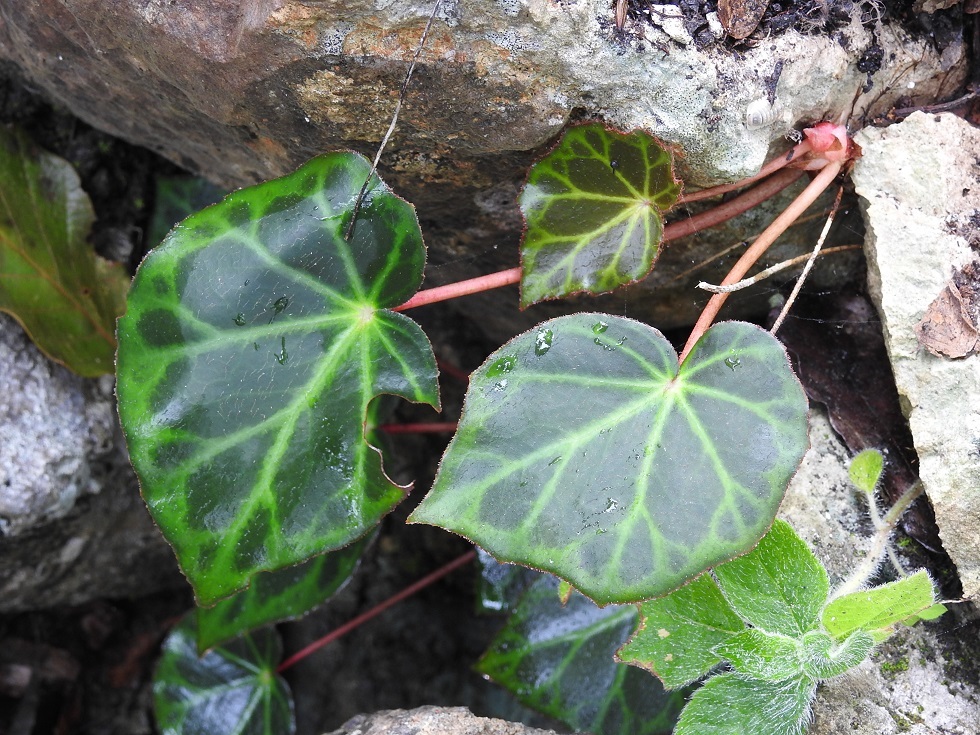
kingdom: Plantae
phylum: Tracheophyta
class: Magnoliopsida
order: Cucurbitales
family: Begoniaceae
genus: Begonia
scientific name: Begonia plebeja
